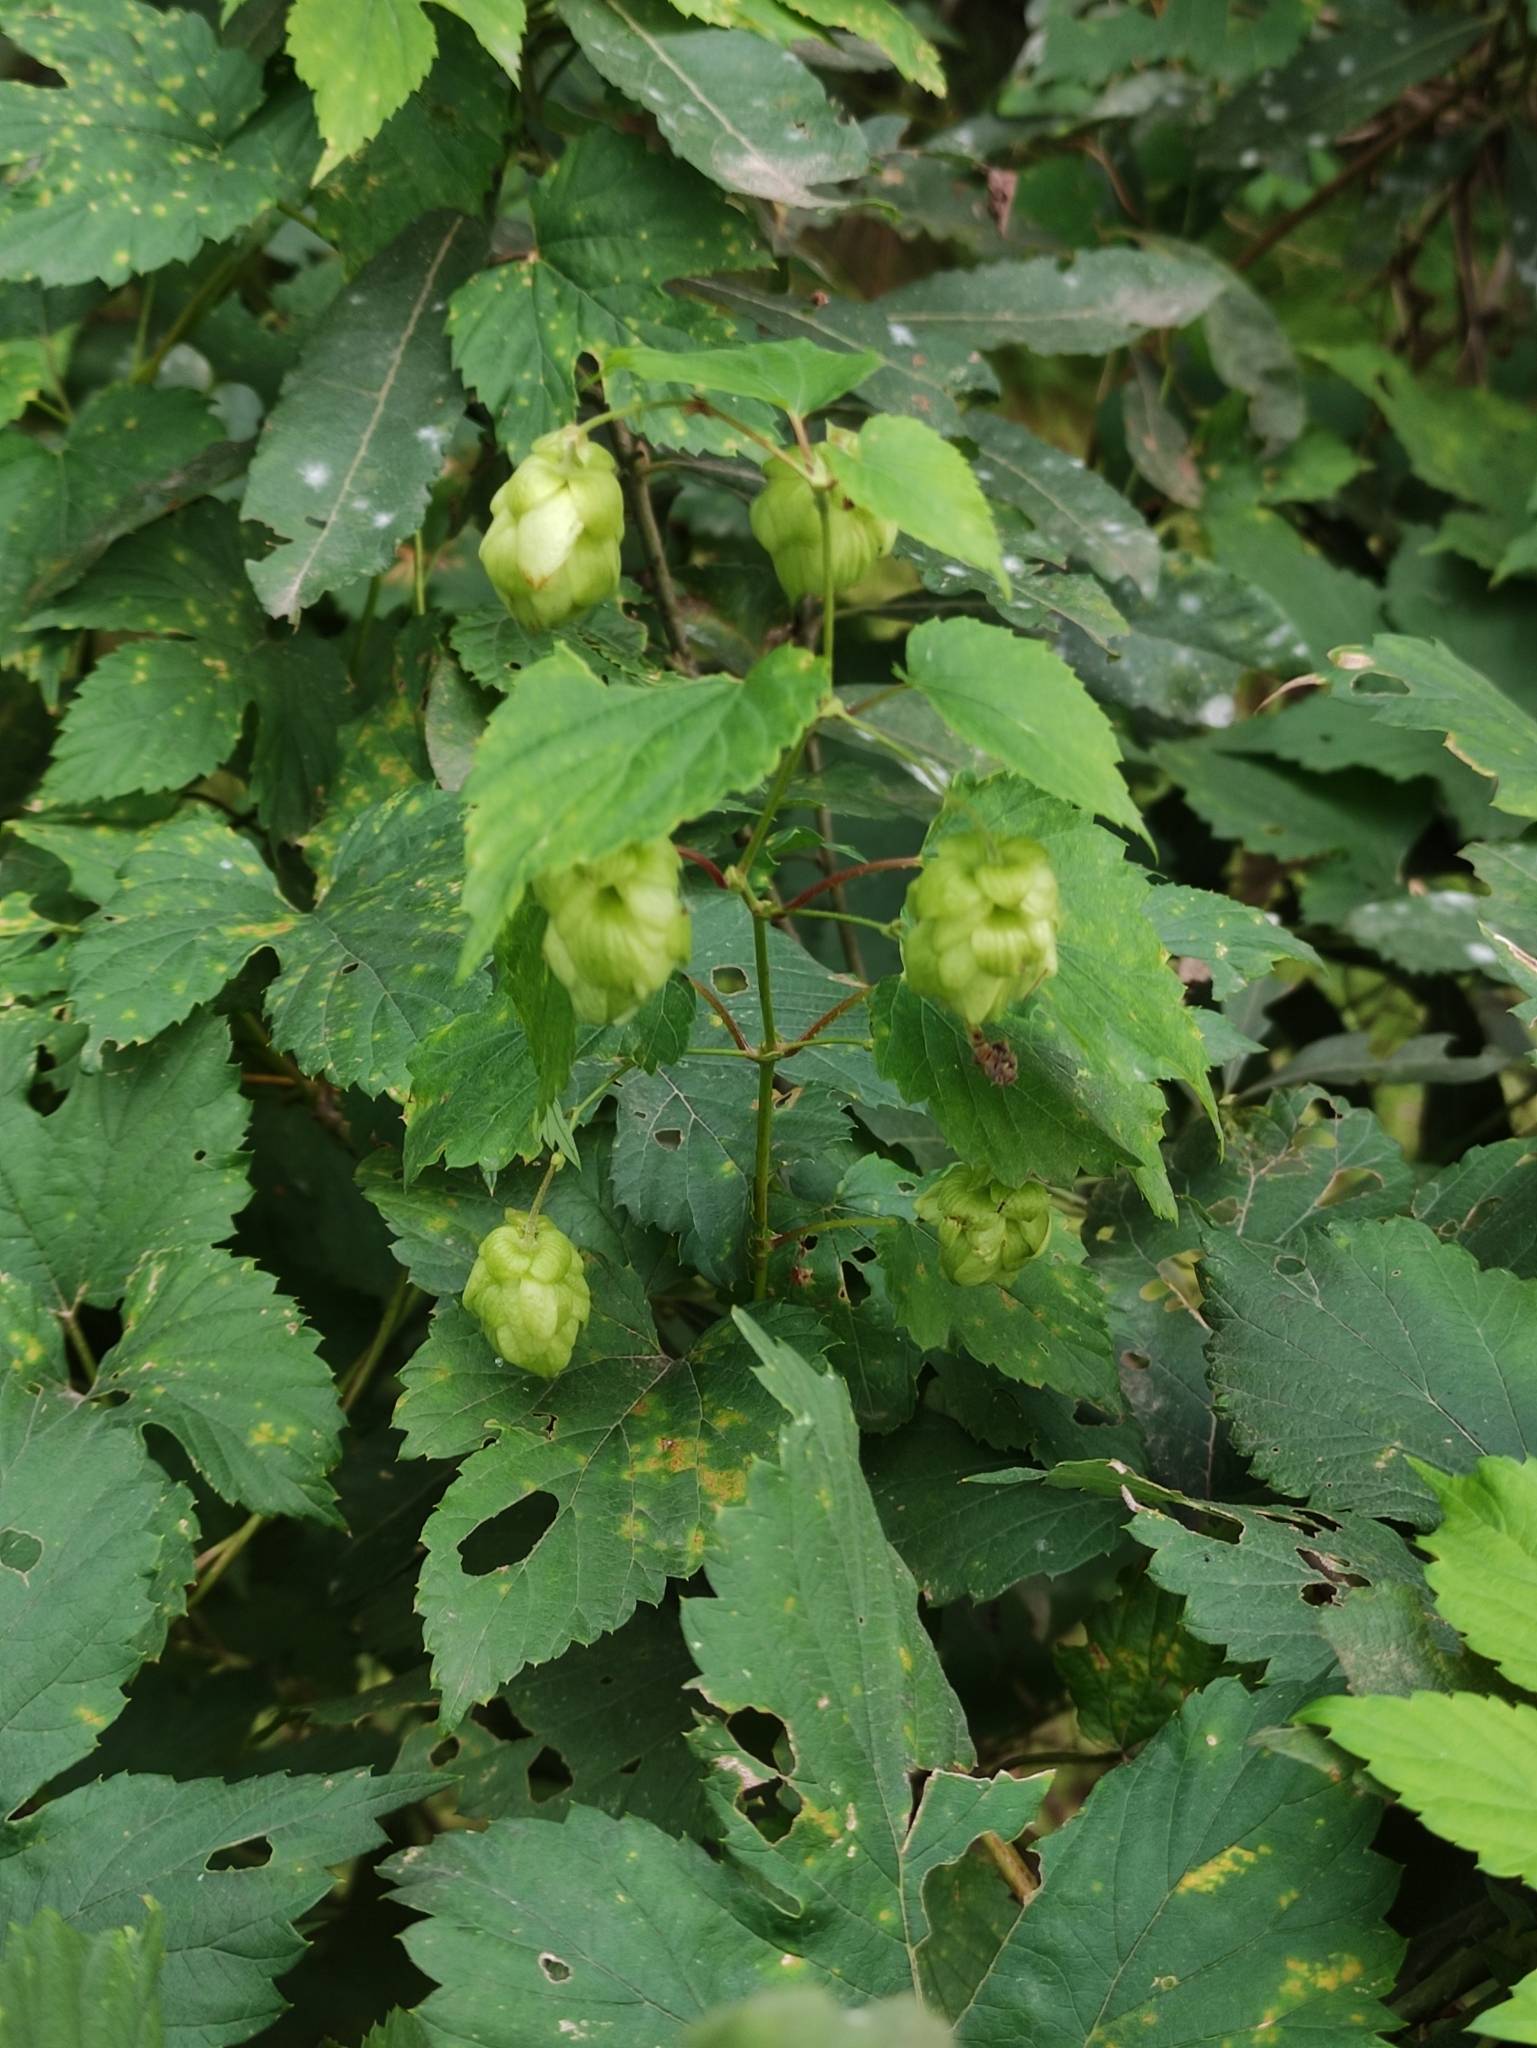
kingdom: Plantae
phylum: Tracheophyta
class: Magnoliopsida
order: Rosales
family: Cannabaceae
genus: Humulus
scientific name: Humulus lupulus
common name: Hop
